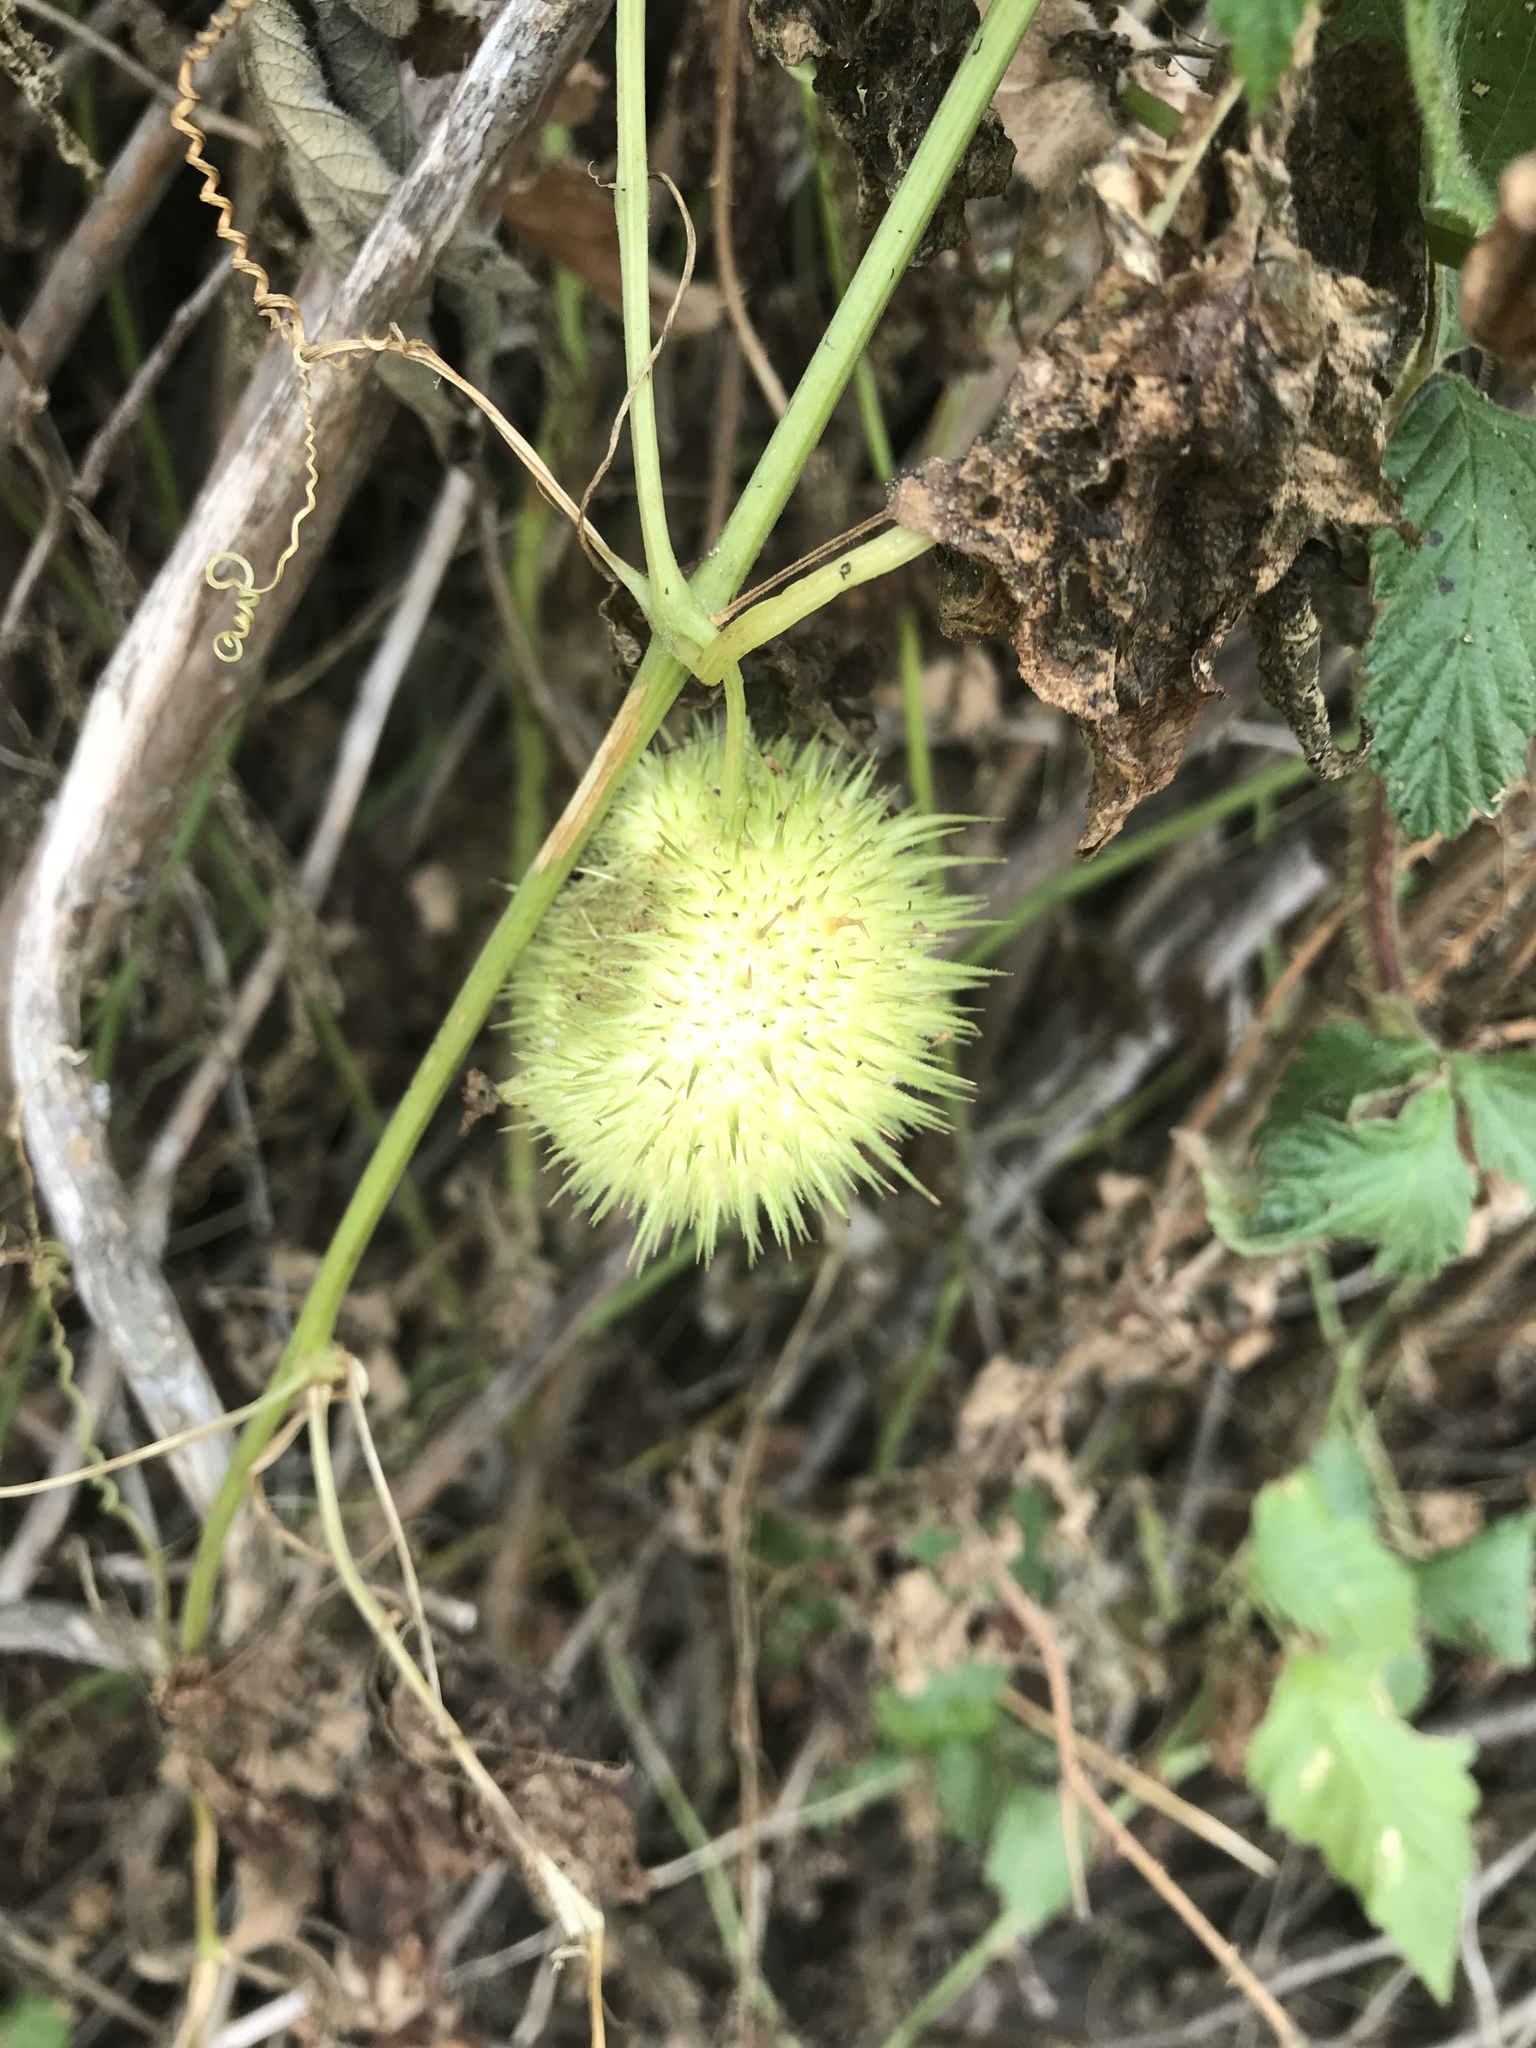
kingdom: Plantae
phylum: Tracheophyta
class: Magnoliopsida
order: Cucurbitales
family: Cucurbitaceae
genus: Marah
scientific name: Marah fabacea
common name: California manroot
